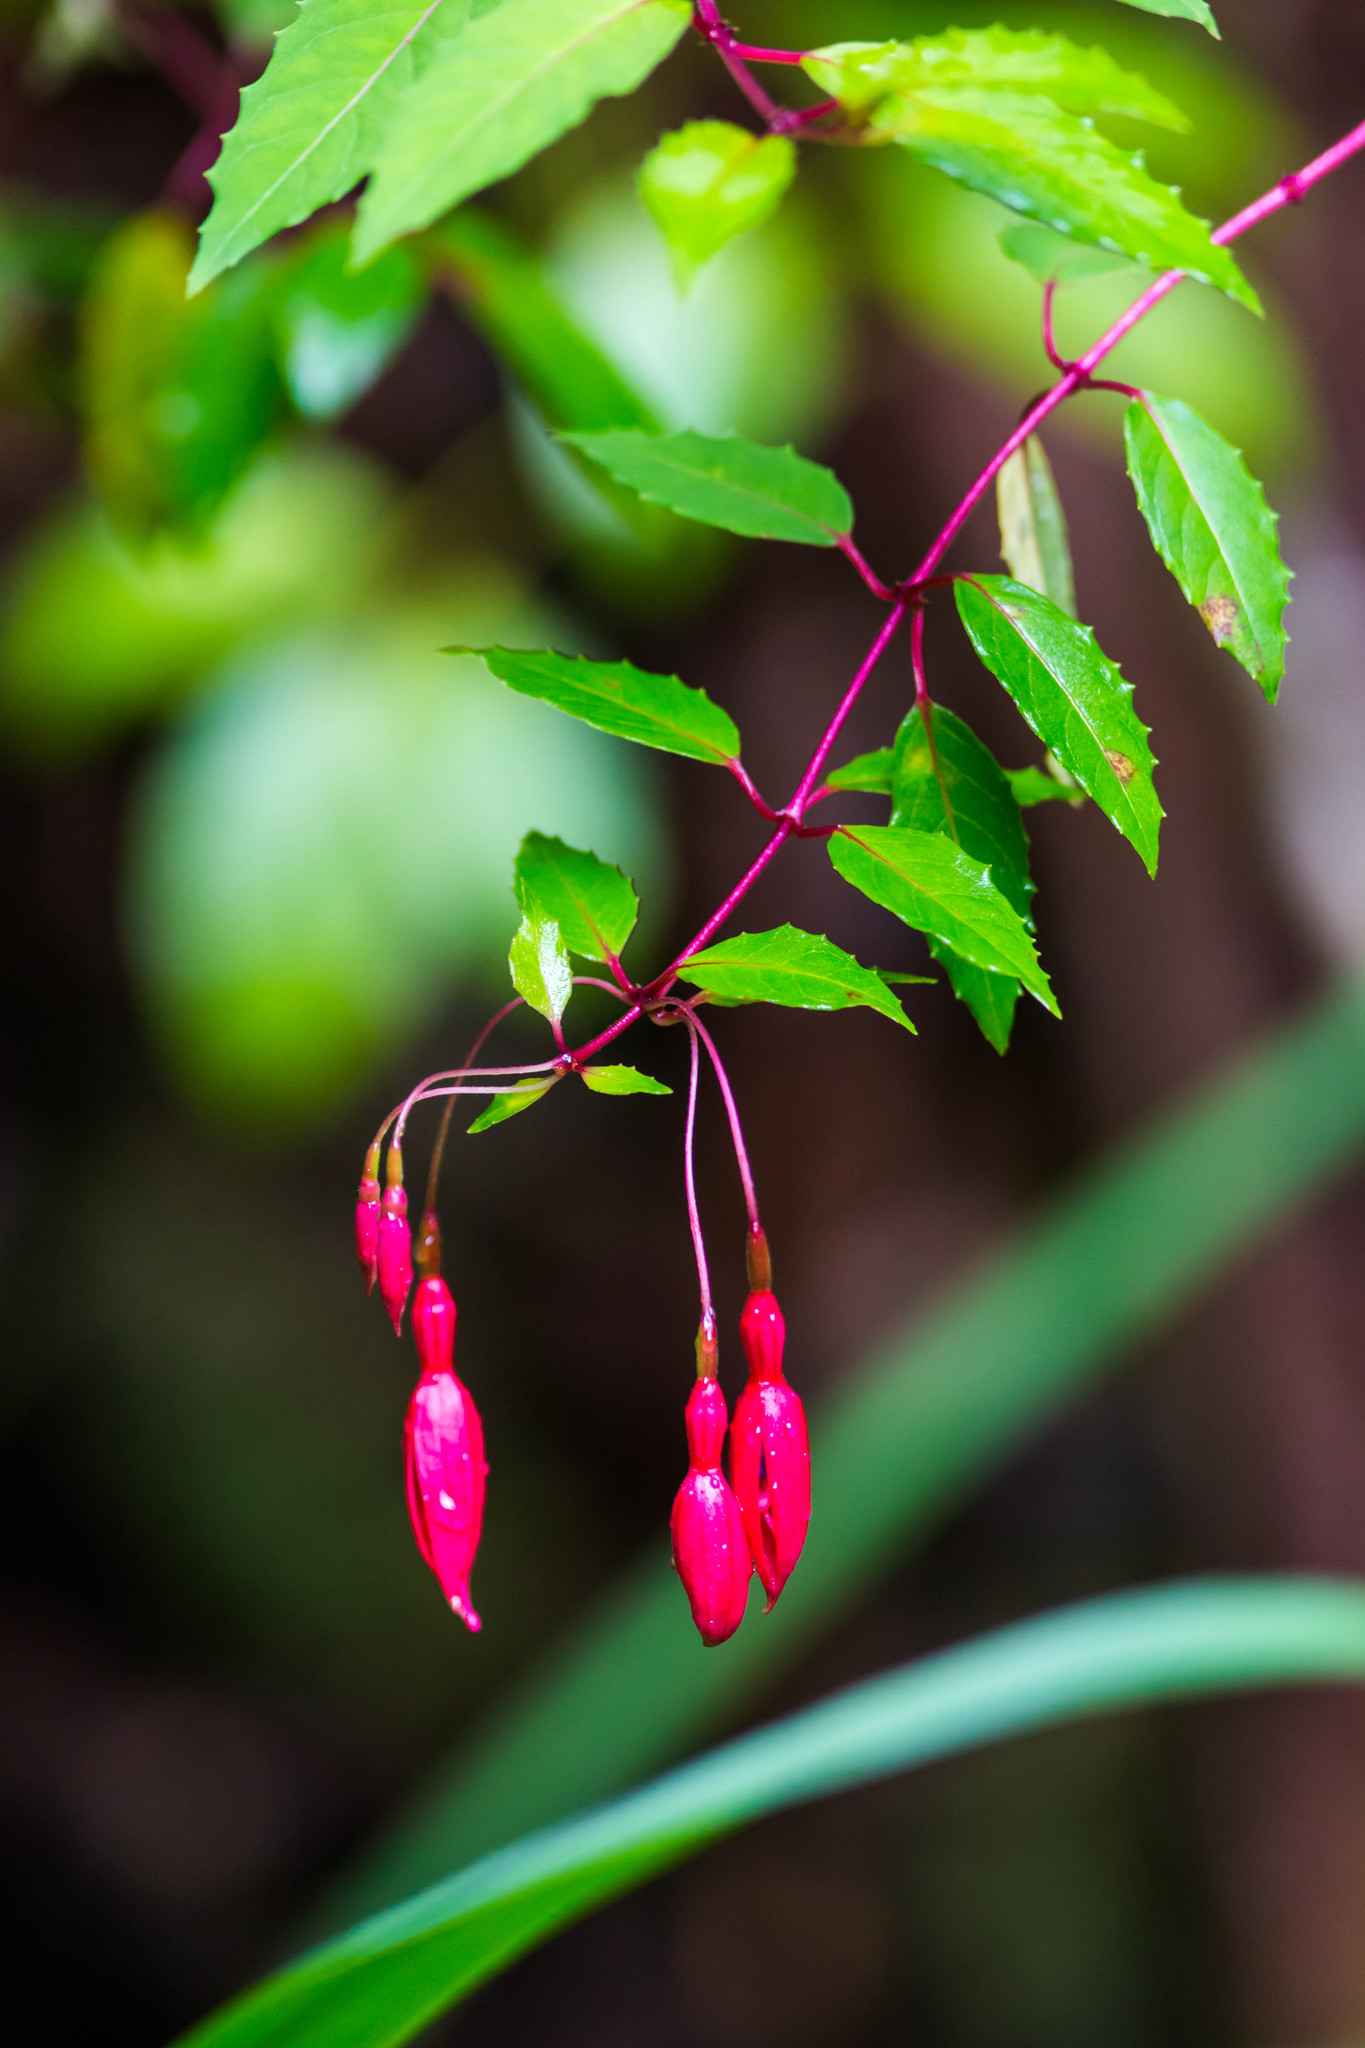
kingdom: Plantae
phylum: Tracheophyta
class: Magnoliopsida
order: Myrtales
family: Onagraceae
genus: Fuchsia
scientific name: Fuchsia magellanica
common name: Hardy fuchsia
